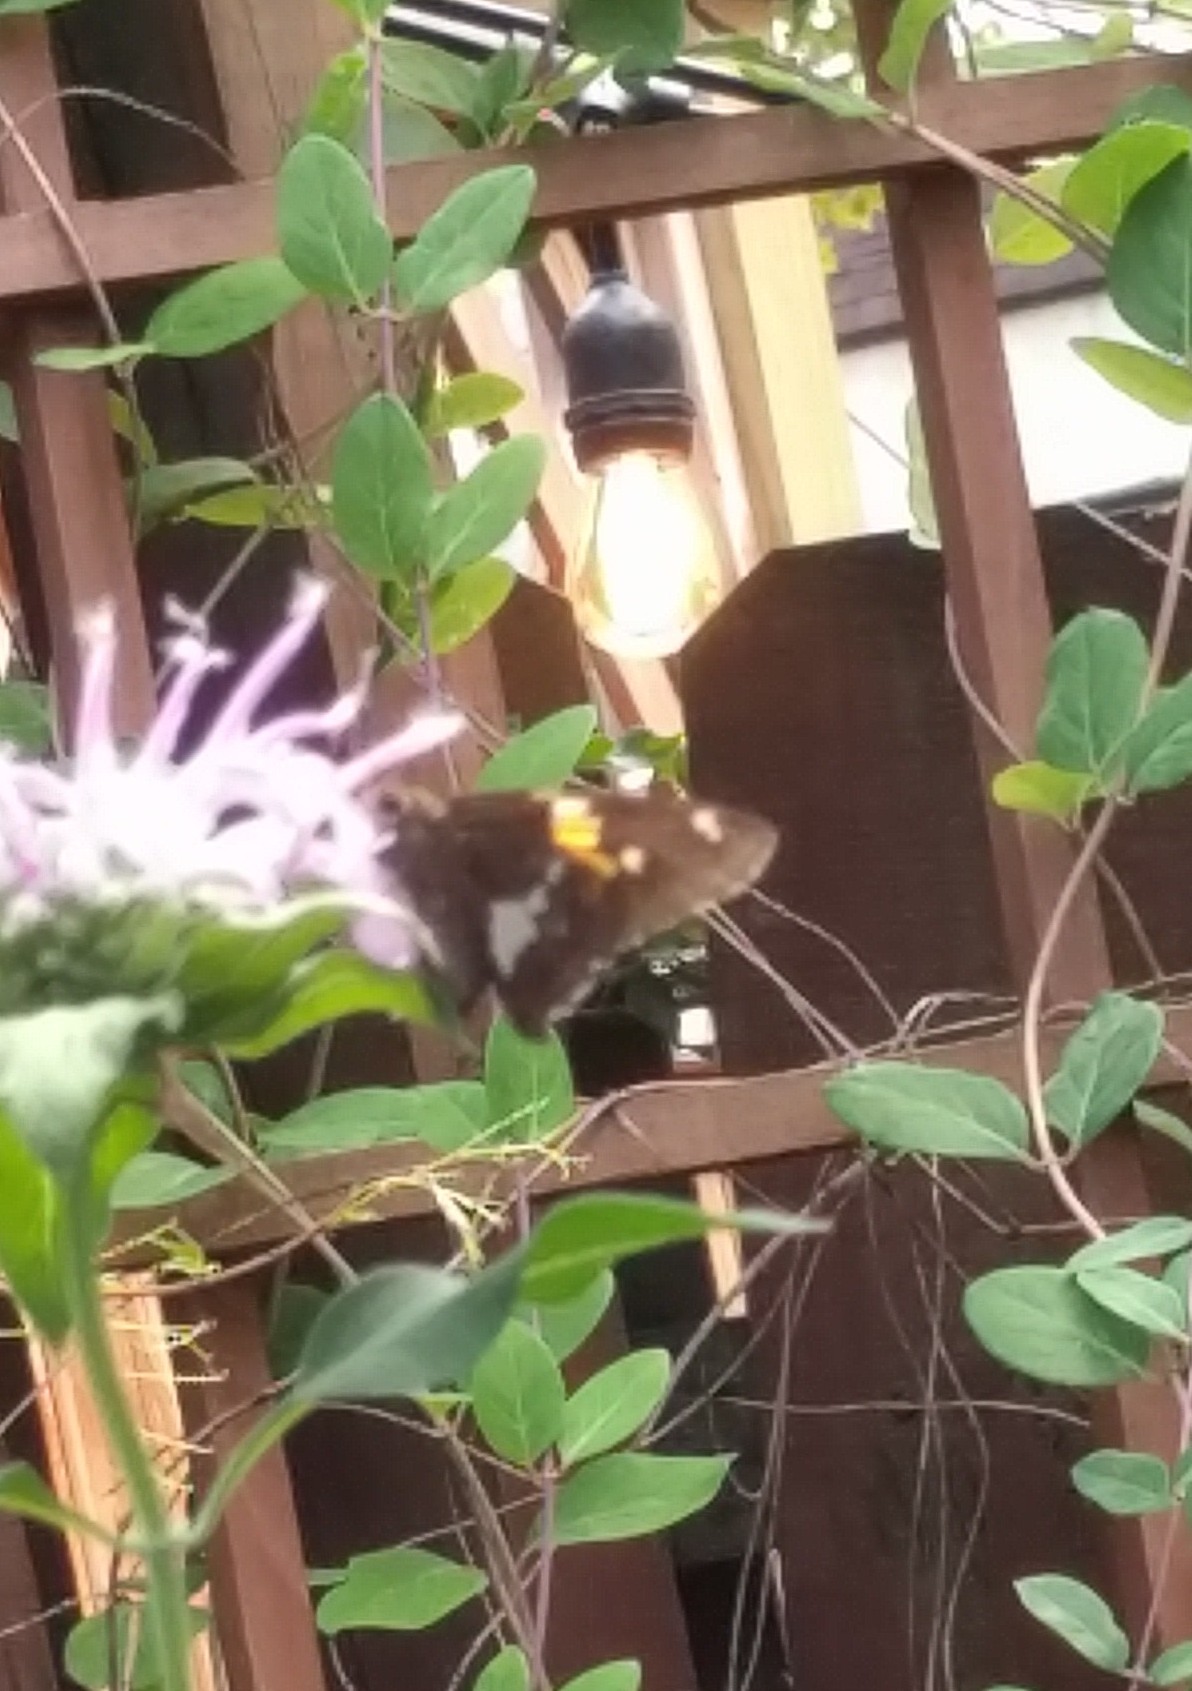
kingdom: Animalia
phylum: Arthropoda
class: Insecta
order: Lepidoptera
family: Hesperiidae
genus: Epargyreus
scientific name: Epargyreus clarus
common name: Silver-spotted skipper
